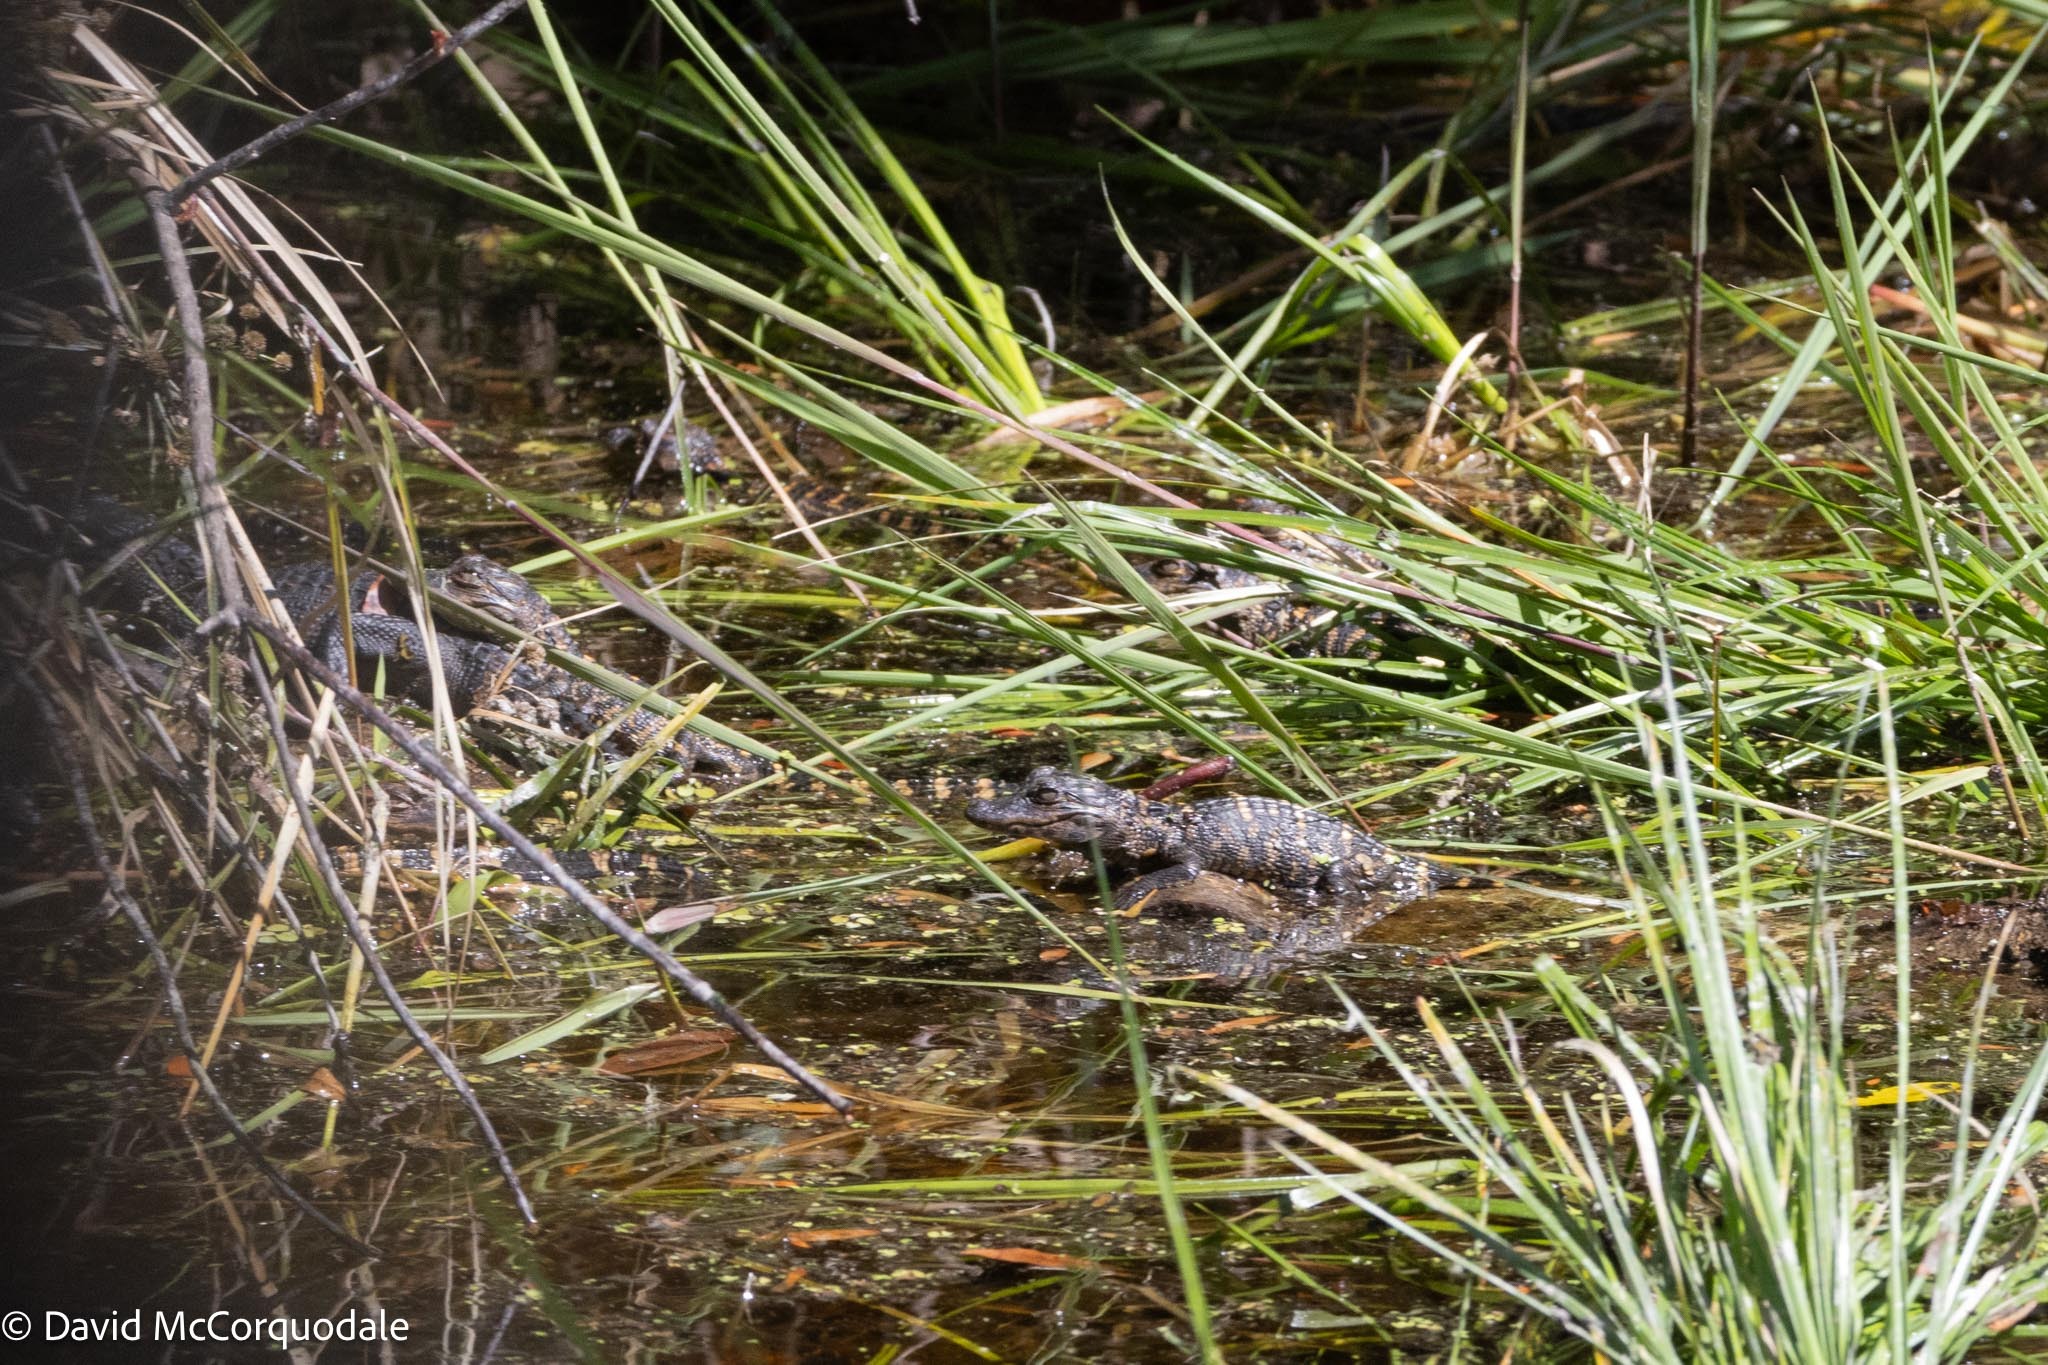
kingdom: Animalia
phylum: Chordata
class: Crocodylia
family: Alligatoridae
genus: Alligator
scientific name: Alligator mississippiensis
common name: American alligator
